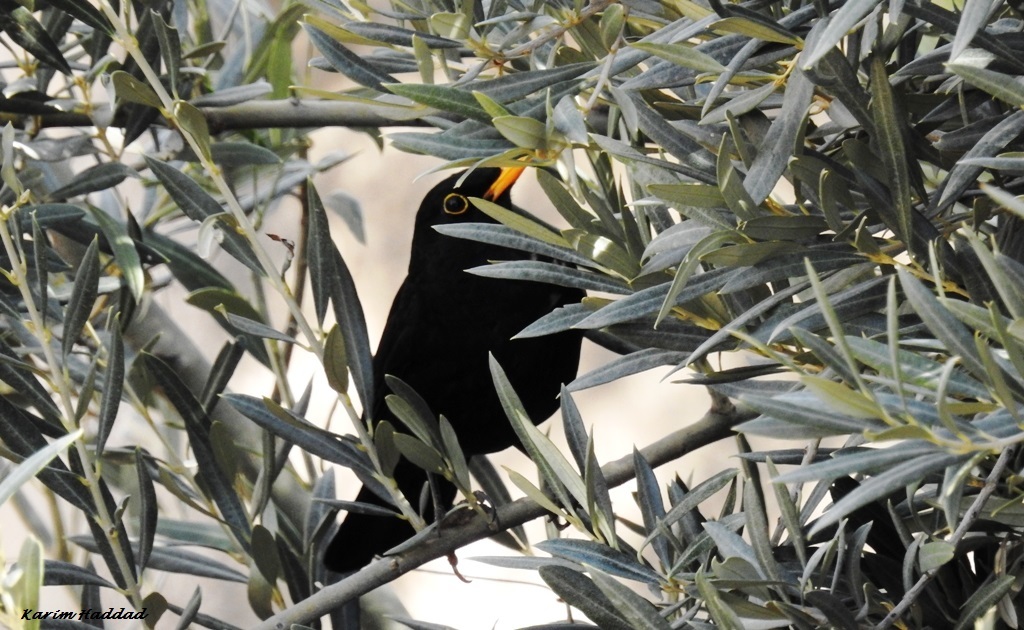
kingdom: Animalia
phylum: Chordata
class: Aves
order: Passeriformes
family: Turdidae
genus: Turdus
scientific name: Turdus merula
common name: Common blackbird
